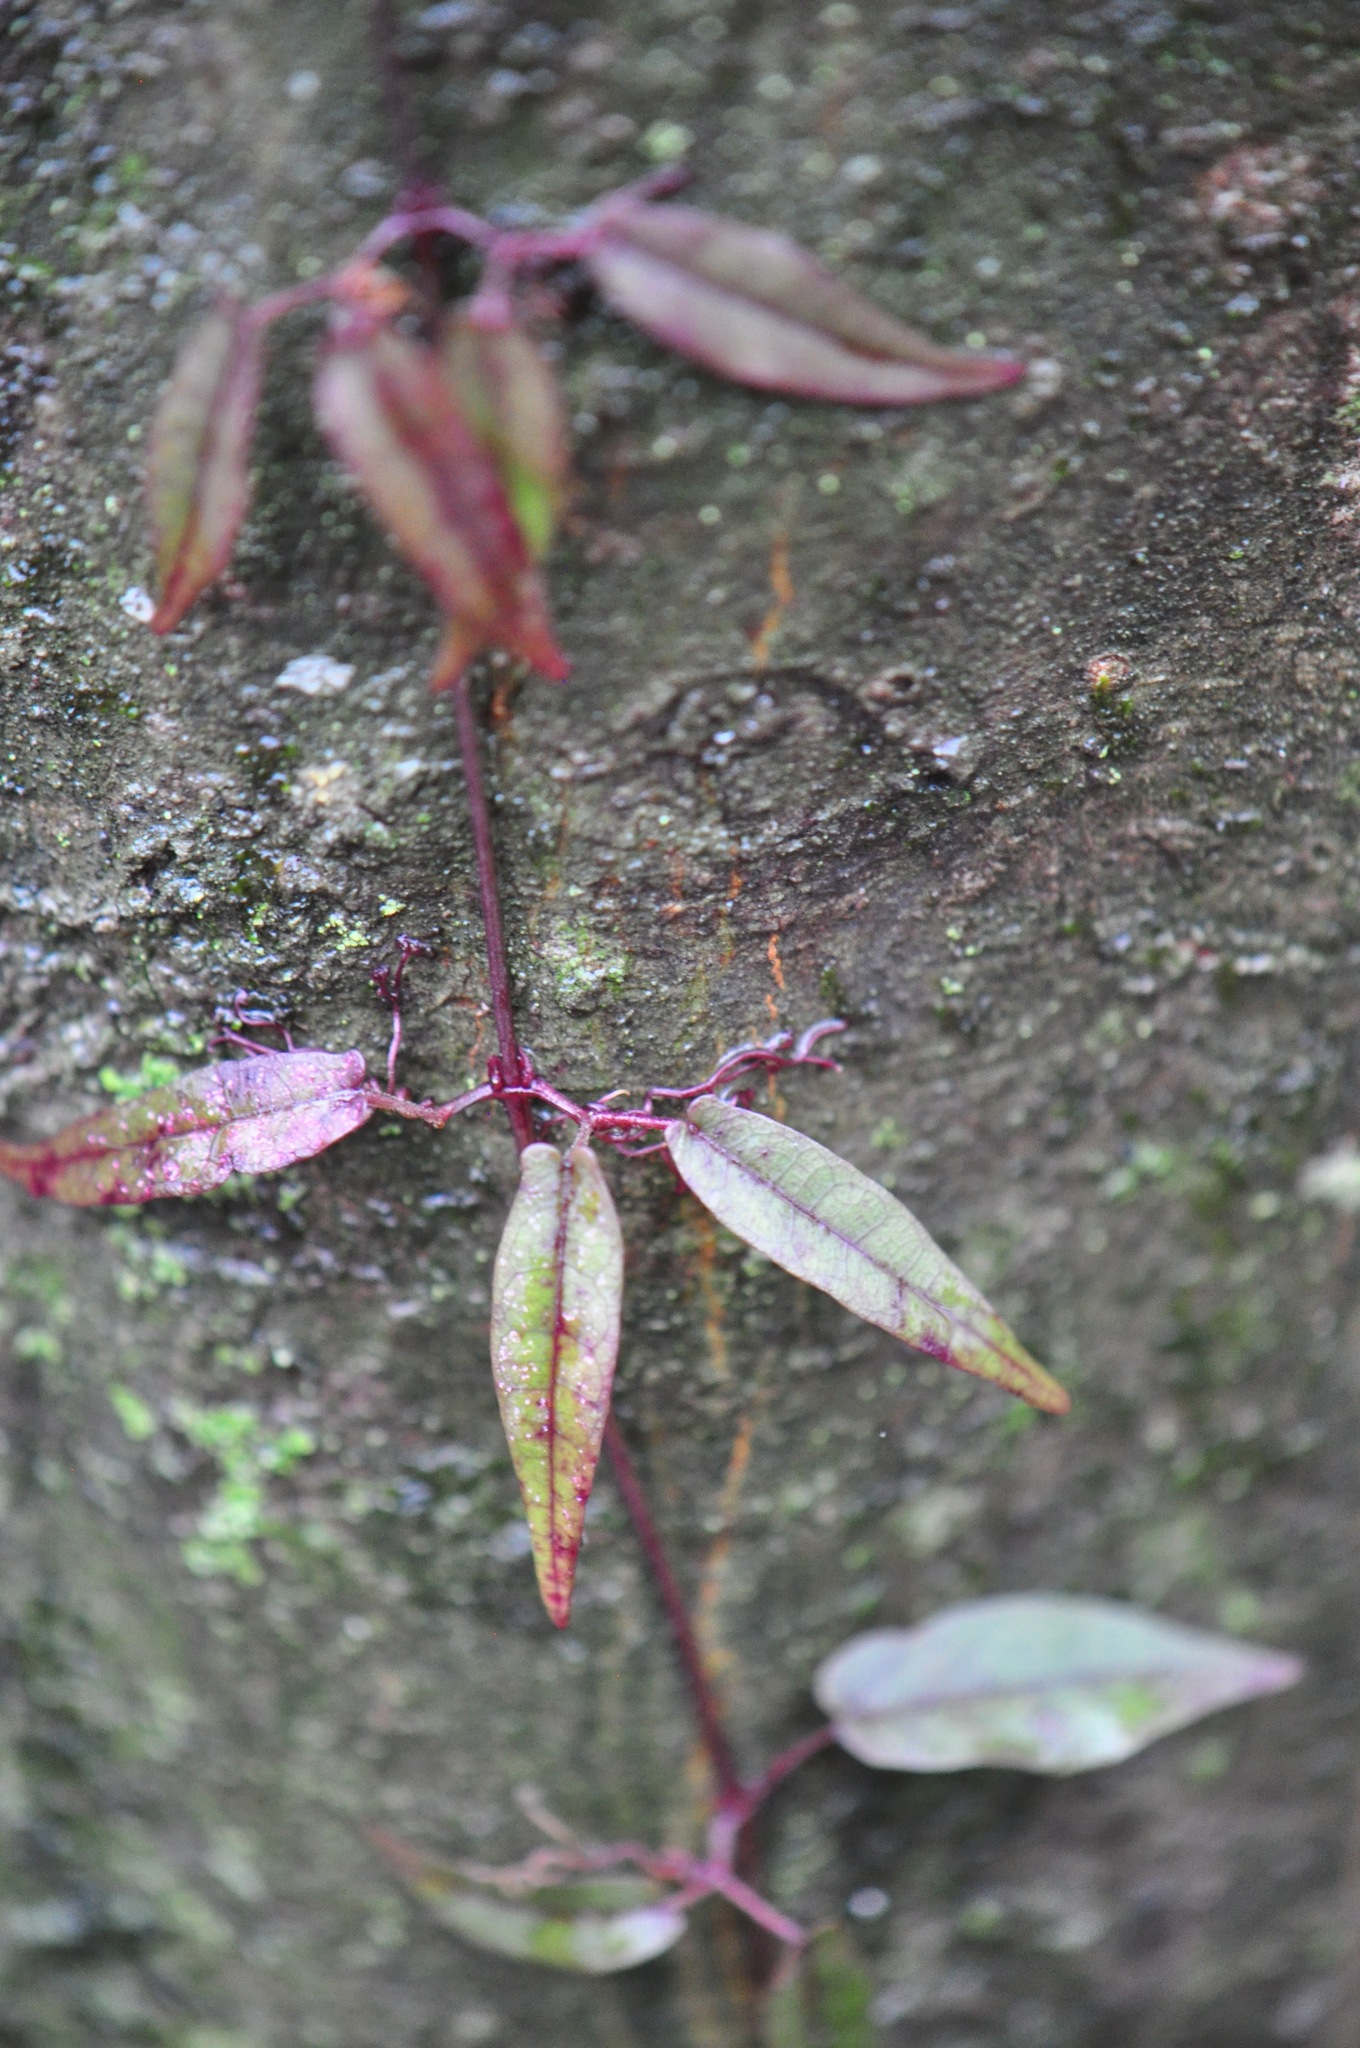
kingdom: Plantae
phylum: Tracheophyta
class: Magnoliopsida
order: Lamiales
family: Bignoniaceae
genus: Bignonia
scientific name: Bignonia capreolata
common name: Crossvine
